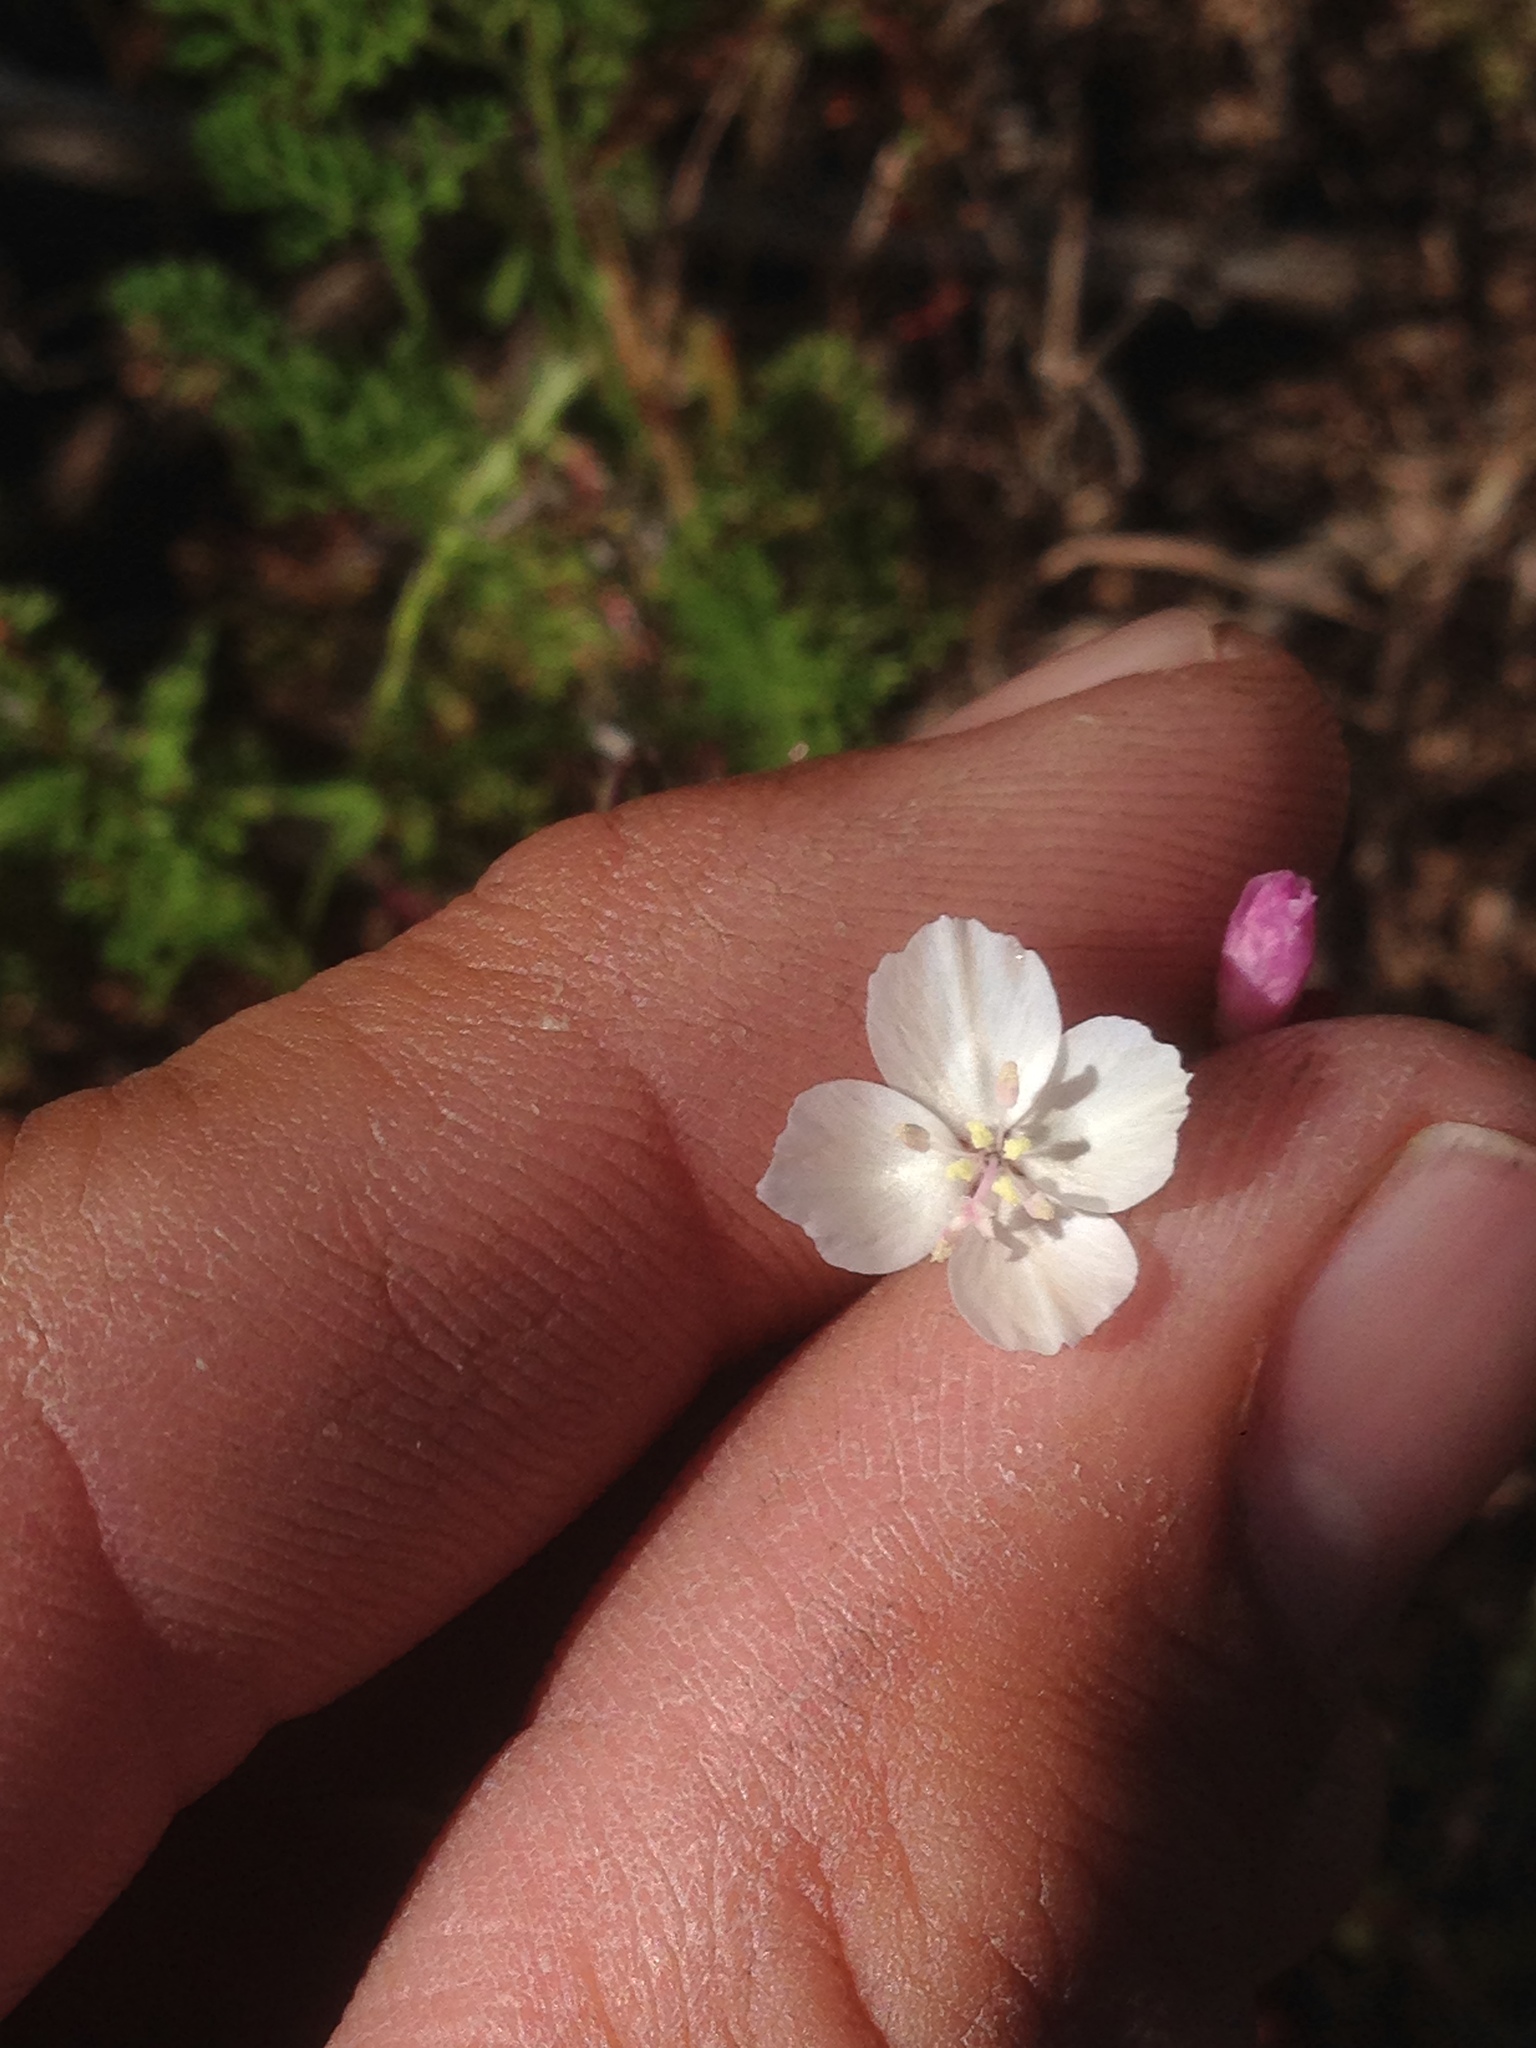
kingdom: Plantae
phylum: Tracheophyta
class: Magnoliopsida
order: Myrtales
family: Onagraceae
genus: Clarkia
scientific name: Clarkia epilobioides
